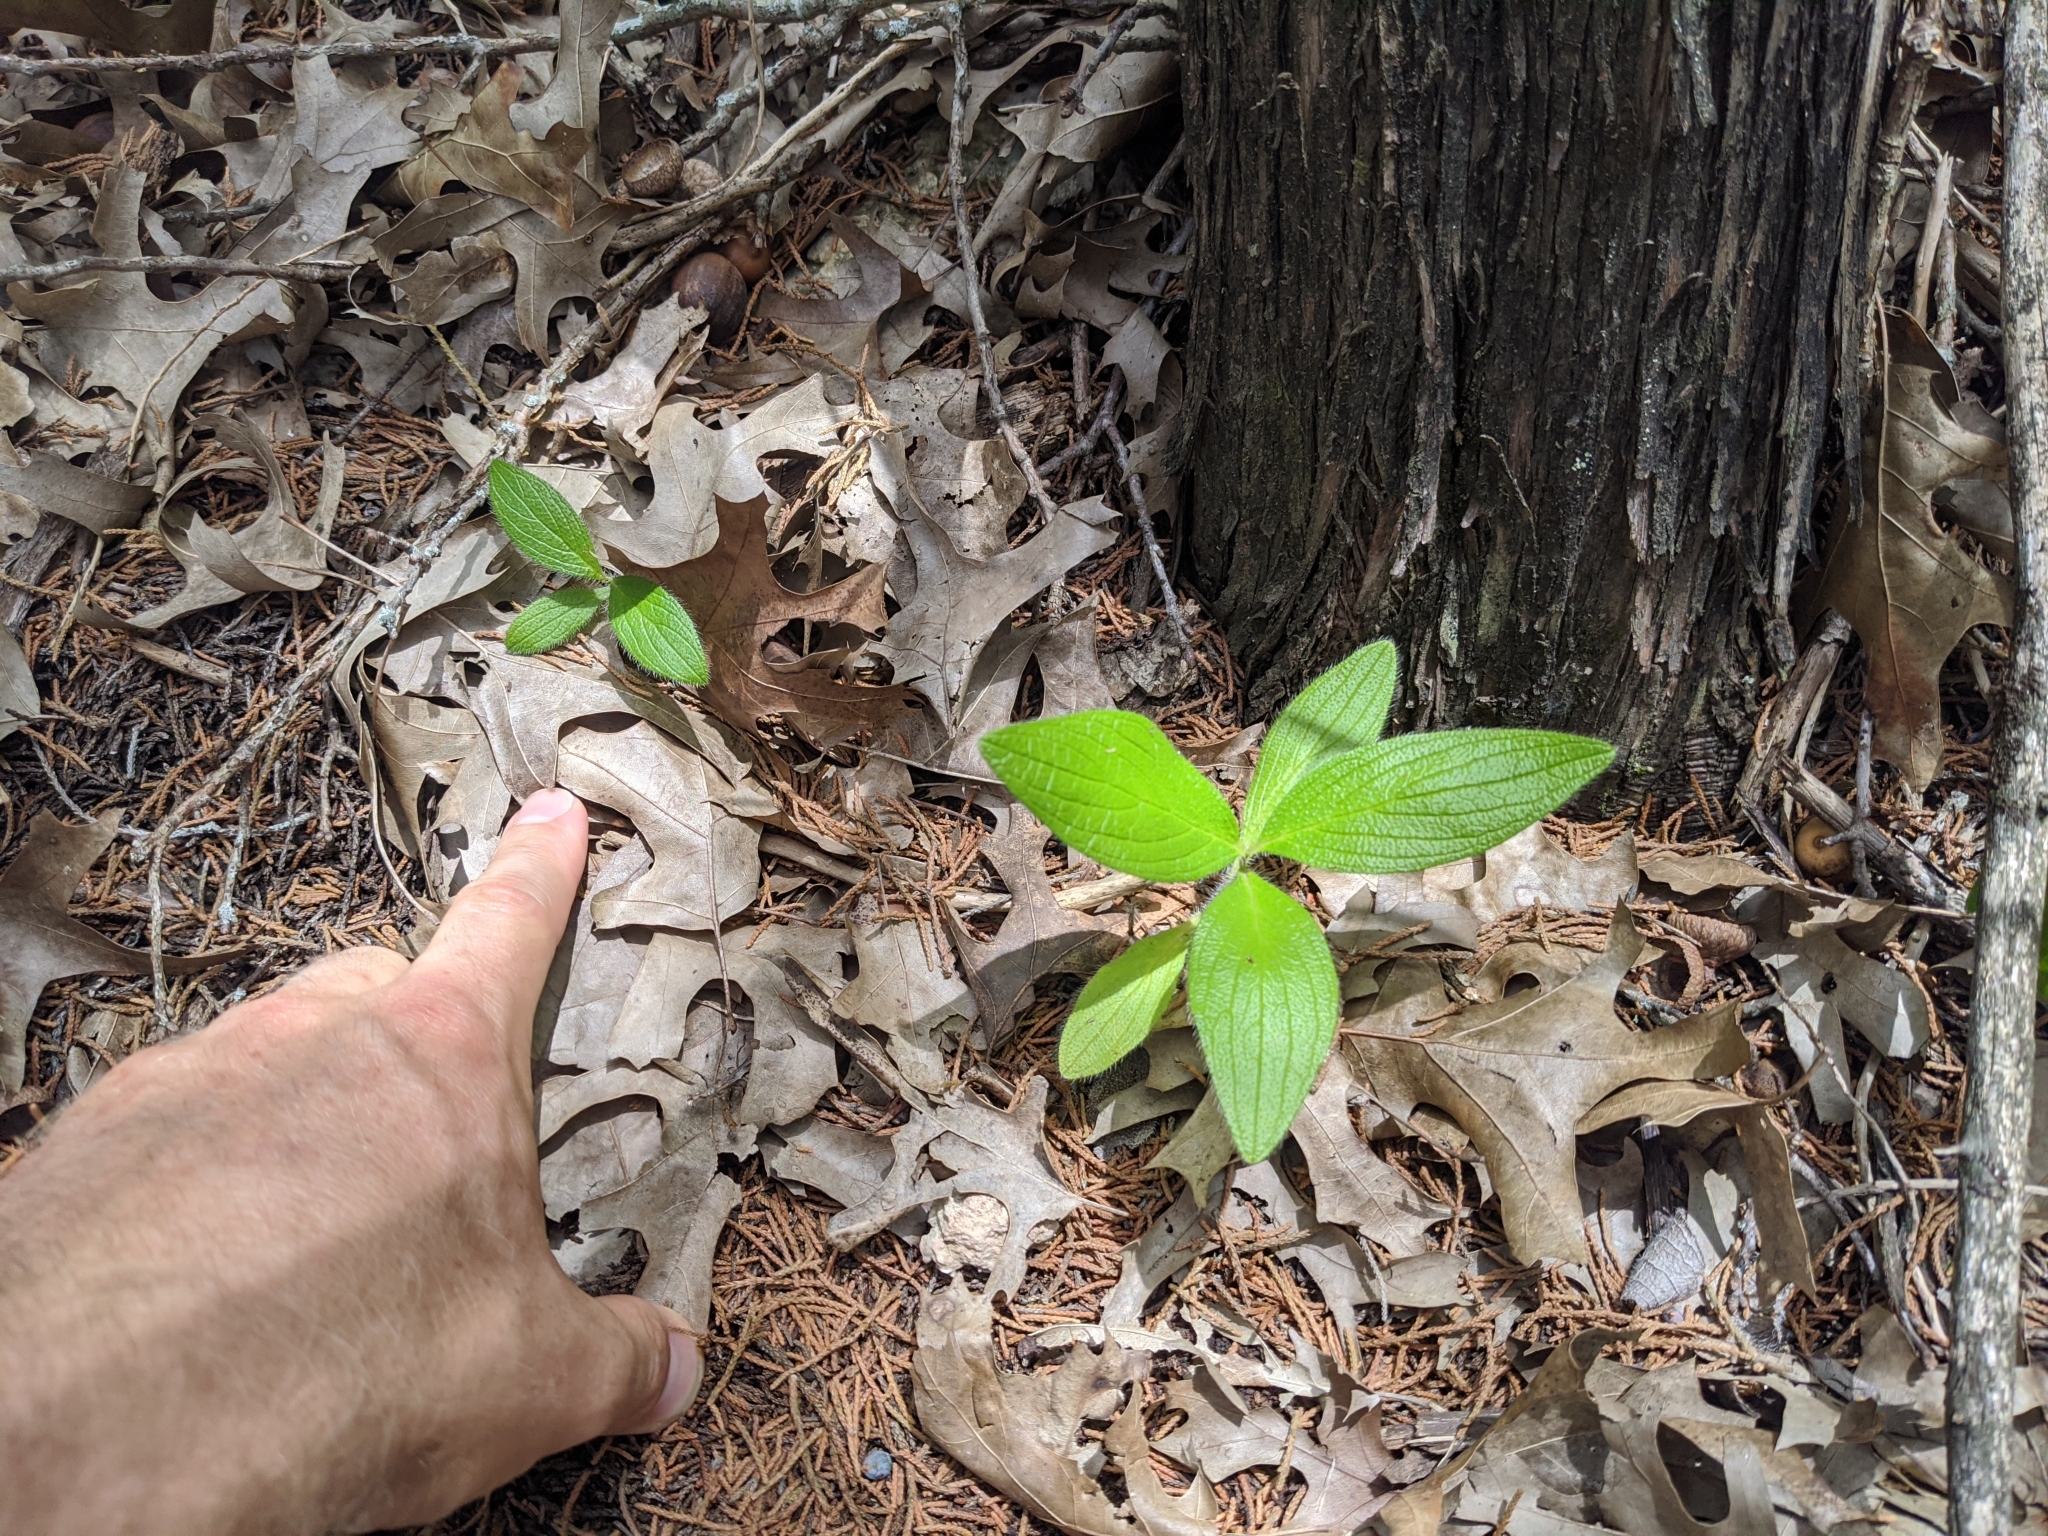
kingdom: Plantae
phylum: Tracheophyta
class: Magnoliopsida
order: Boraginales
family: Boraginaceae
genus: Lithospermum
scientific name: Lithospermum helleri
